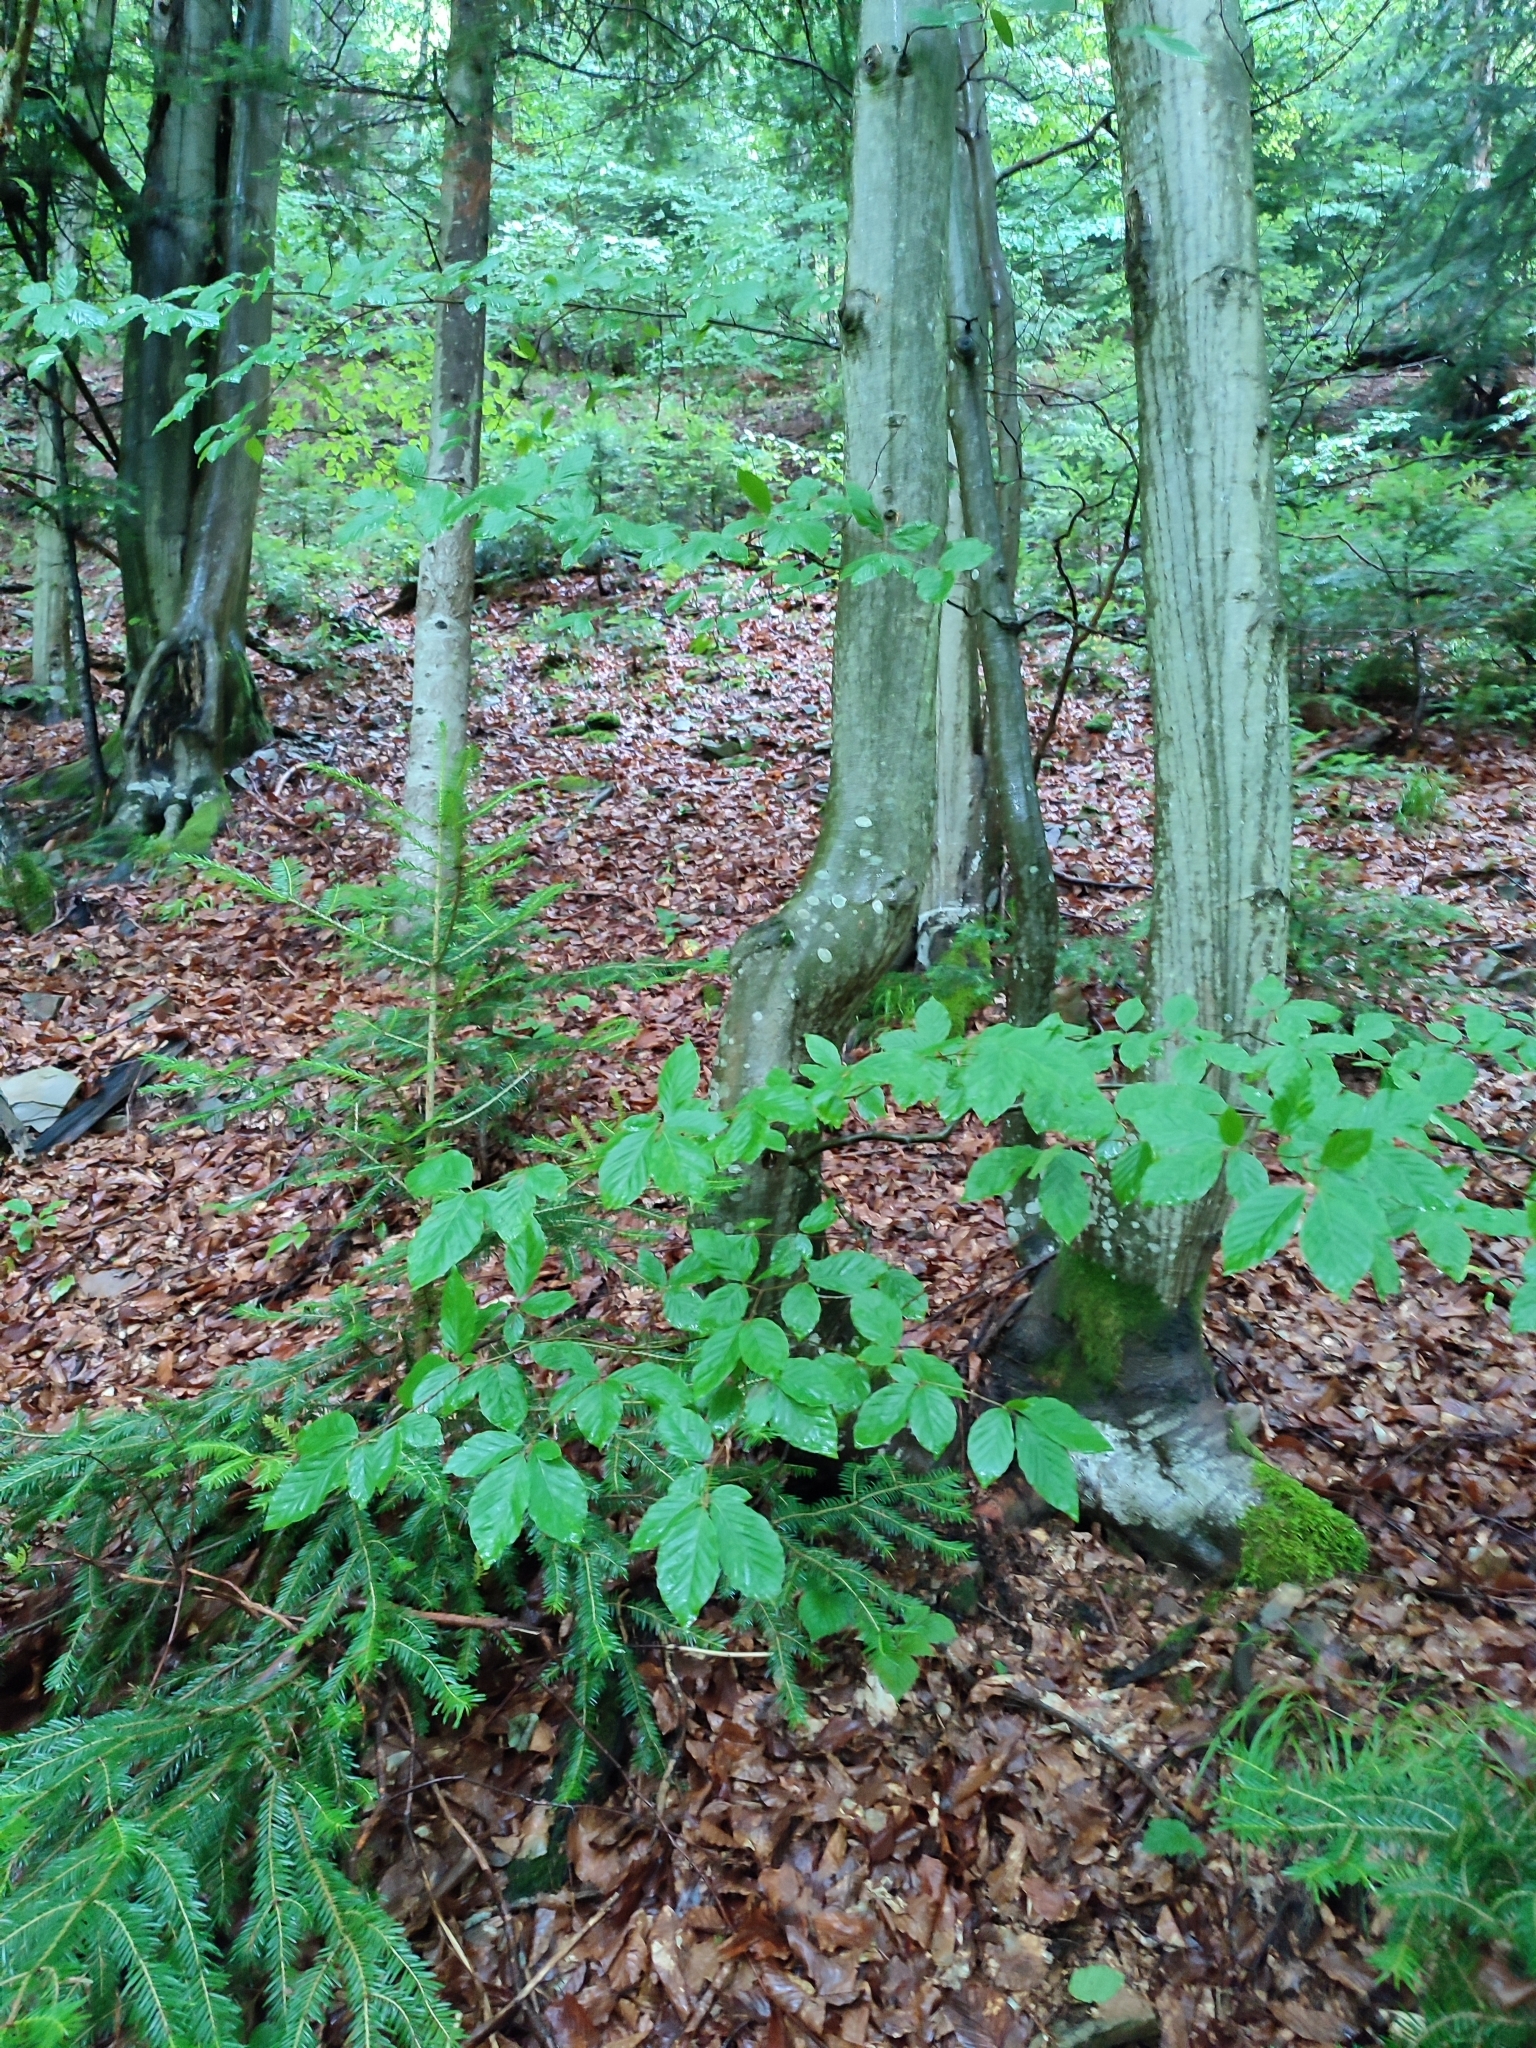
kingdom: Plantae
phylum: Tracheophyta
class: Magnoliopsida
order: Fagales
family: Fagaceae
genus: Fagus
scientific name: Fagus sylvatica
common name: Beech
